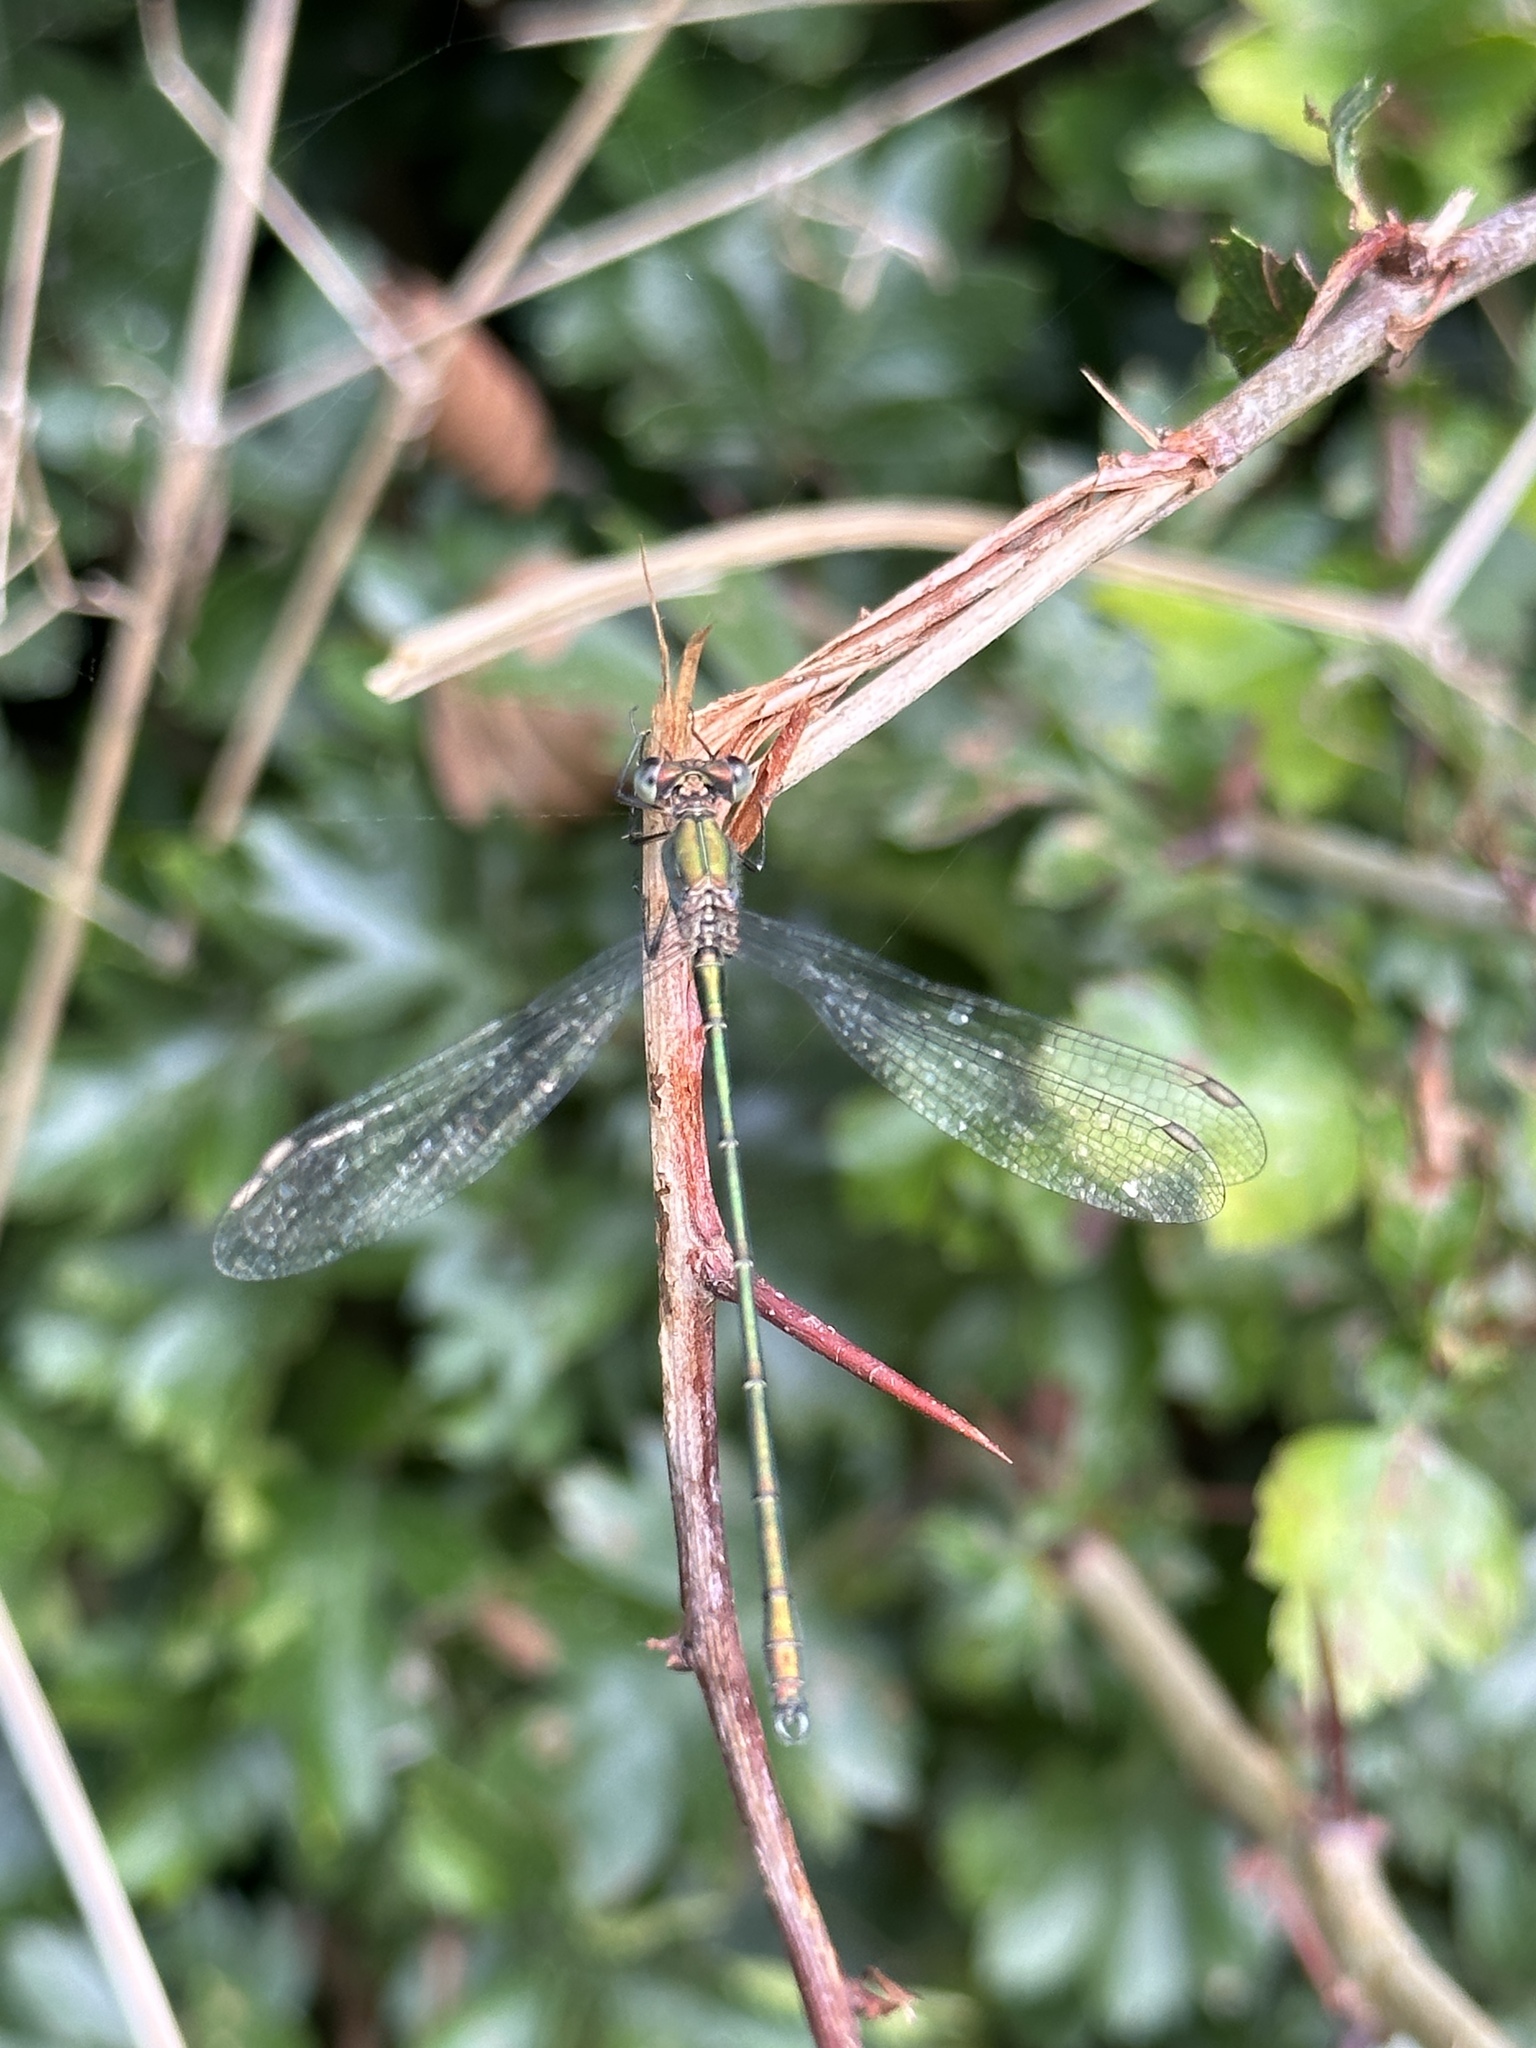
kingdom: Animalia
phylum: Arthropoda
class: Insecta
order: Odonata
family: Lestidae
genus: Chalcolestes
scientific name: Chalcolestes viridis
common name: Green emerald damselfly
